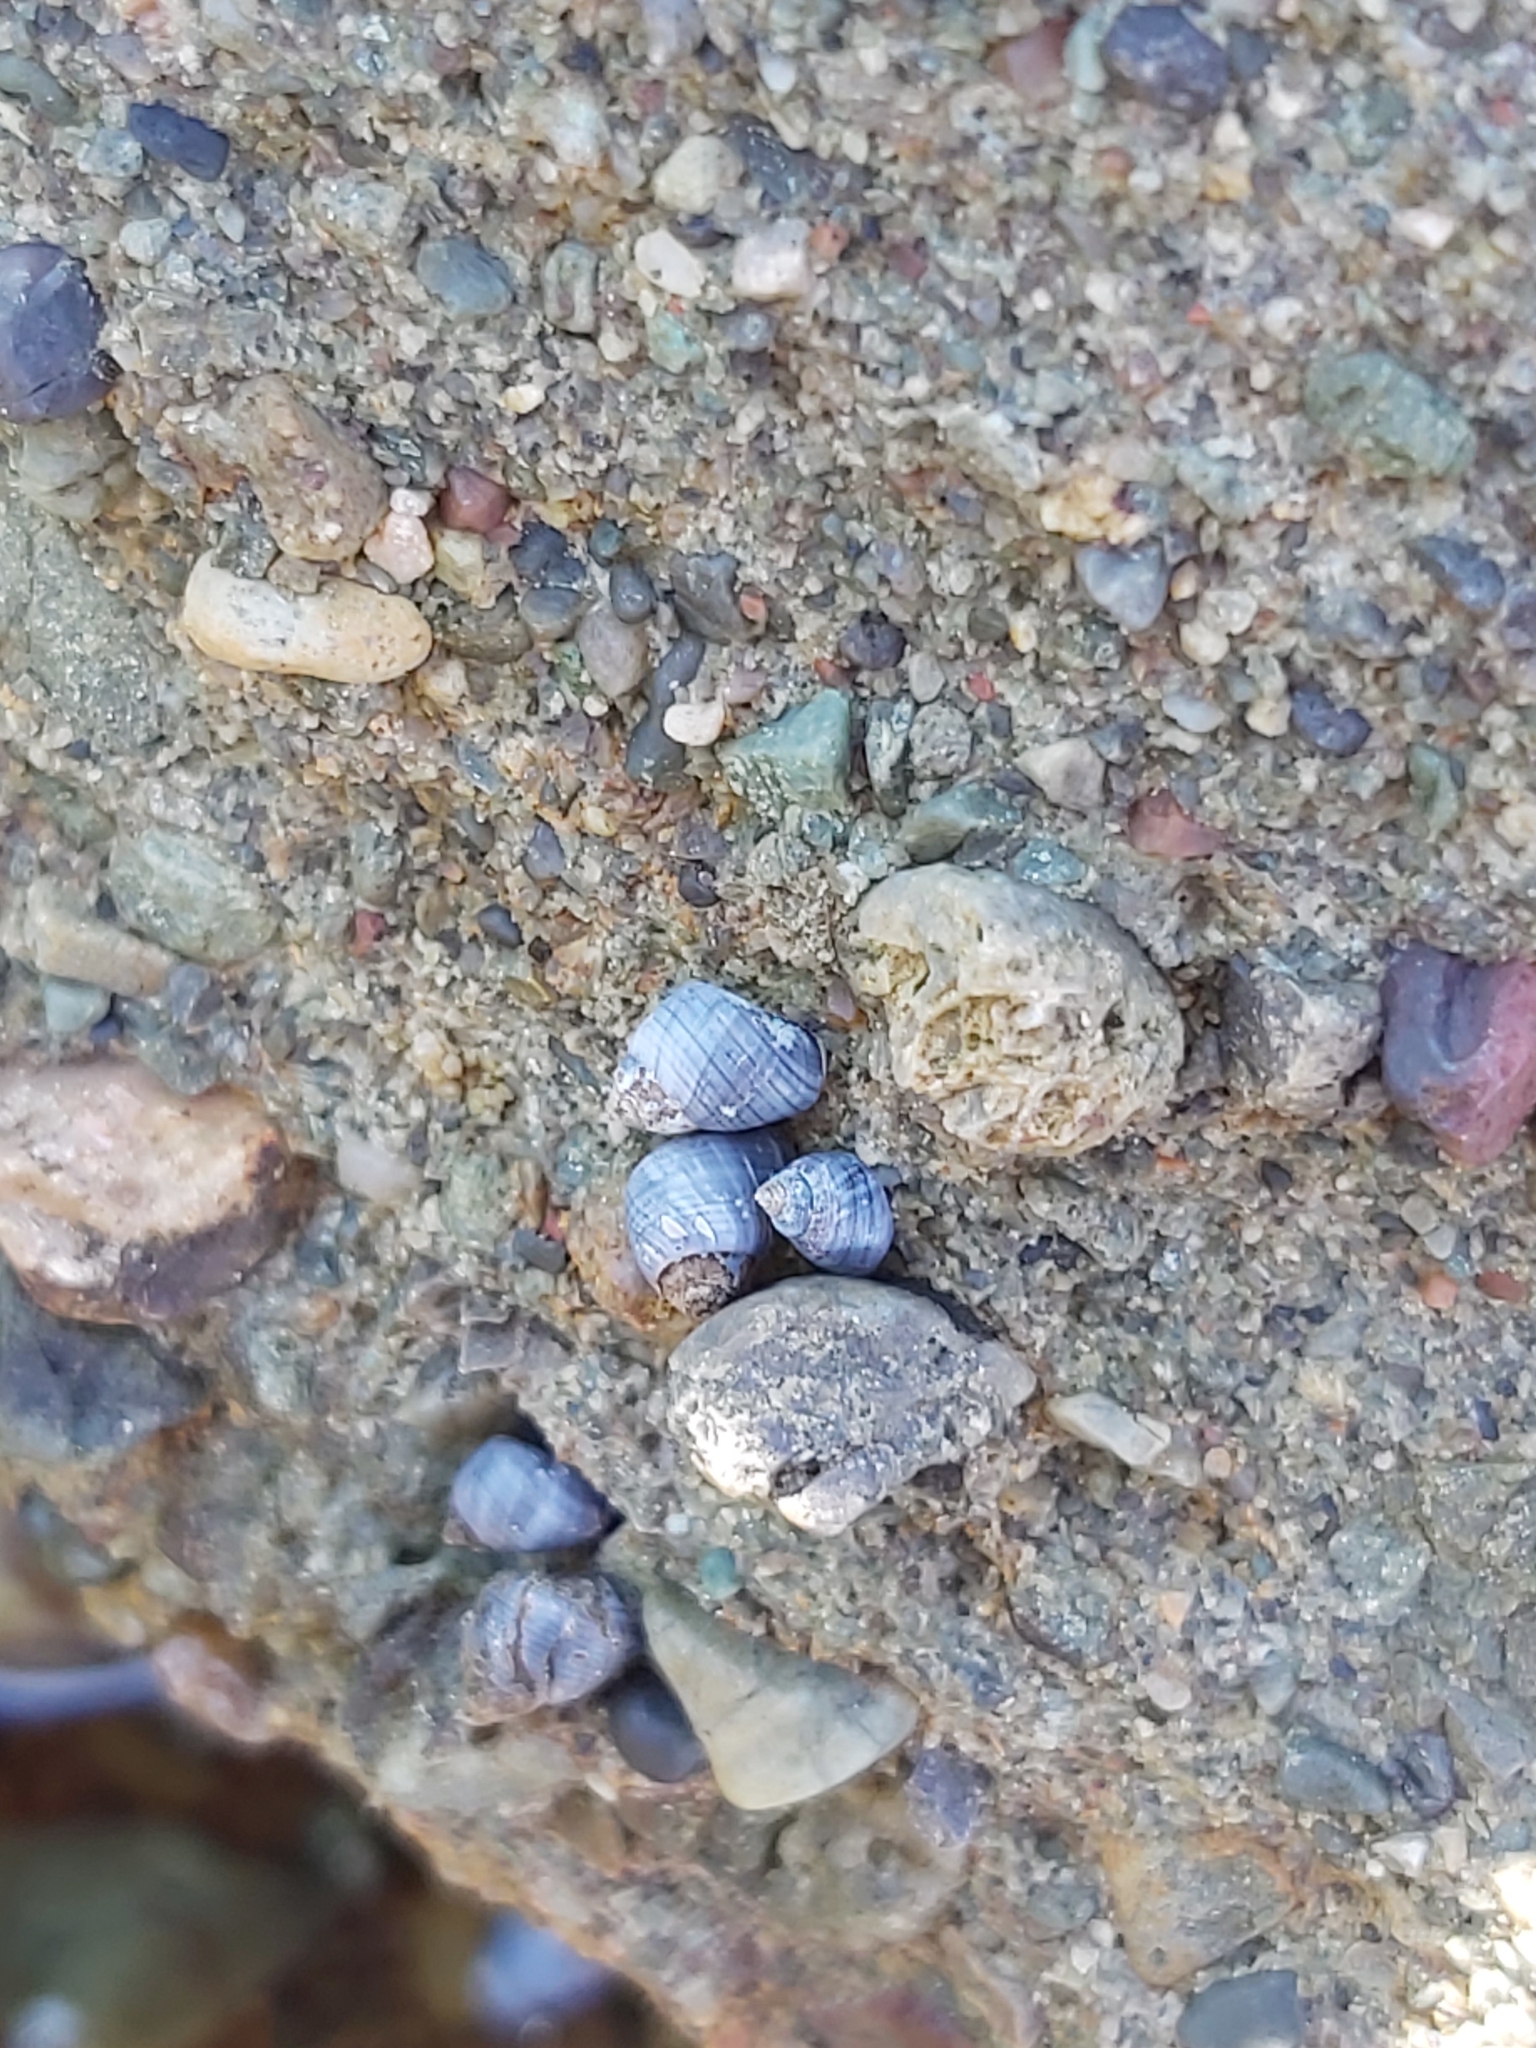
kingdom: Animalia
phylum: Mollusca
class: Gastropoda
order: Littorinimorpha
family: Littorinidae
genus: Austrolittorina
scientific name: Austrolittorina unifasciata
